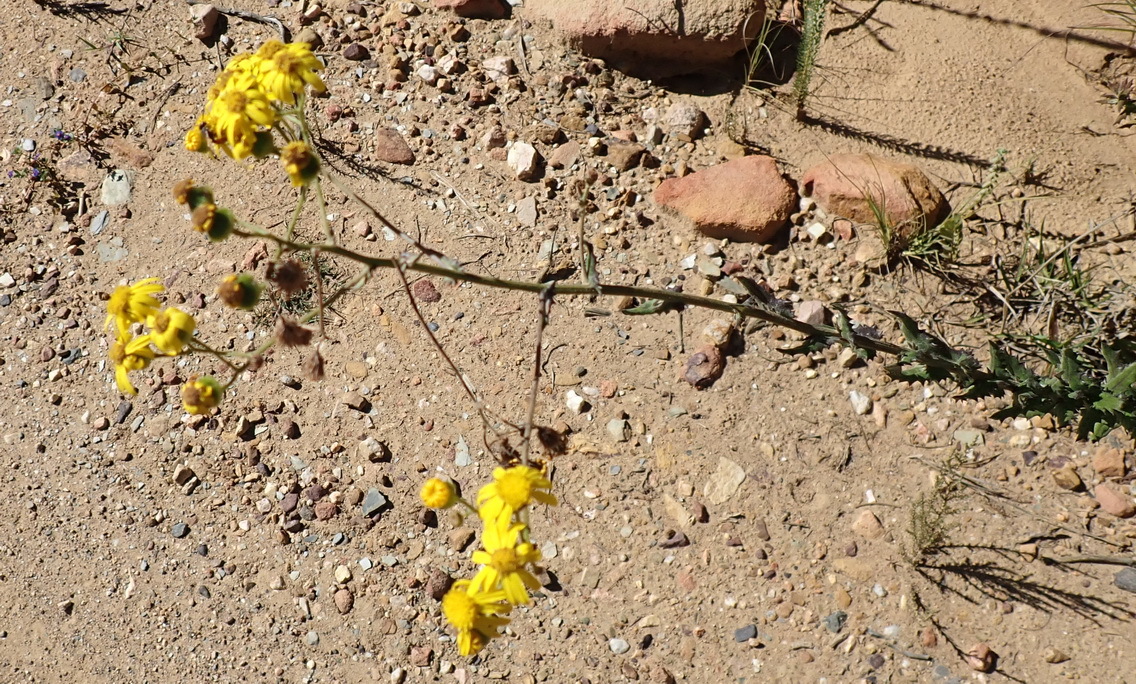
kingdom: Plantae
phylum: Tracheophyta
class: Magnoliopsida
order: Asterales
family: Asteraceae
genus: Senecio
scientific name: Senecio ilicifolius
